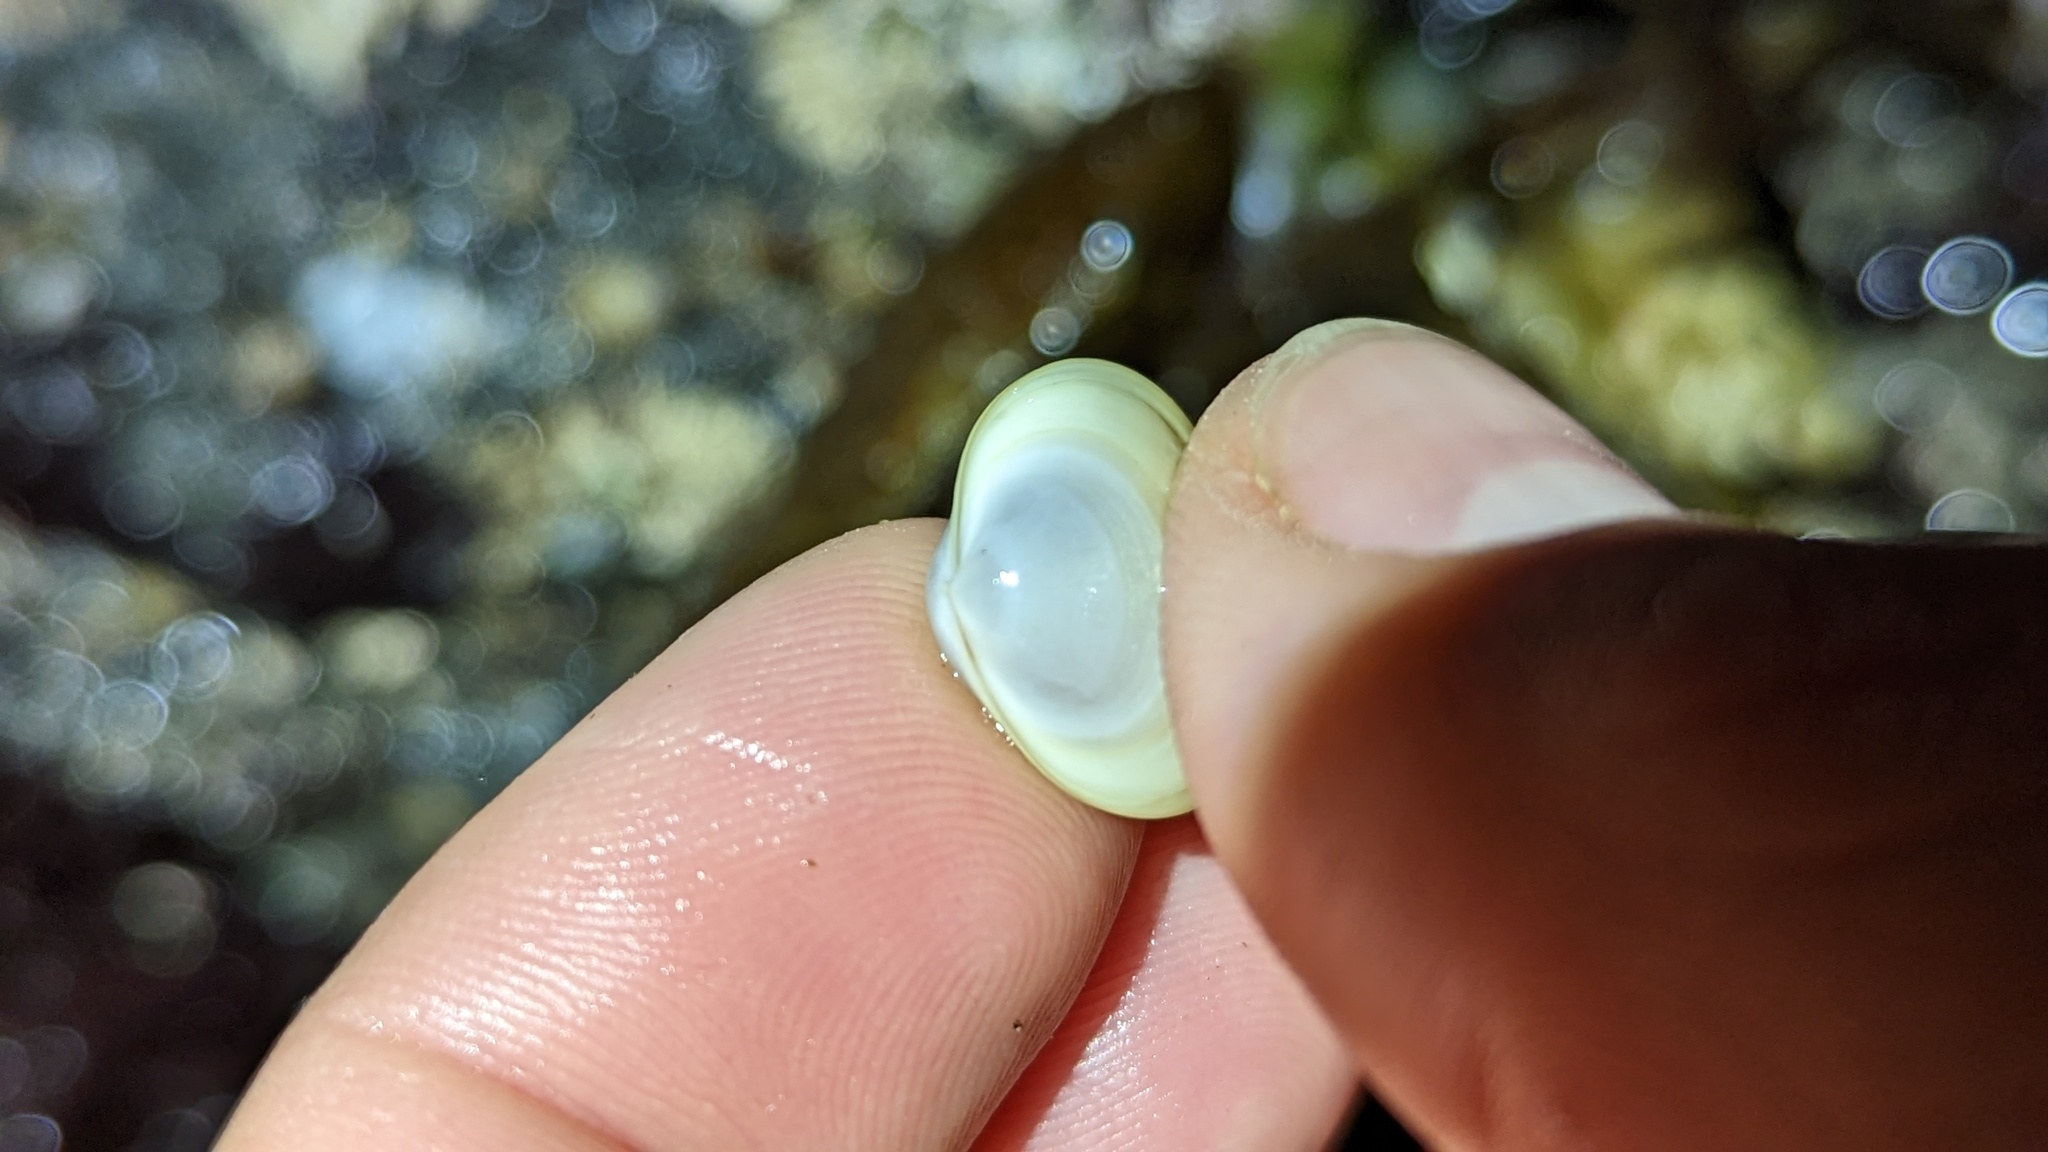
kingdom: Animalia
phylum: Mollusca
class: Bivalvia
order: Galeommatida
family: Lasaeidae
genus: Kellia
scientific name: Kellia laperousii
